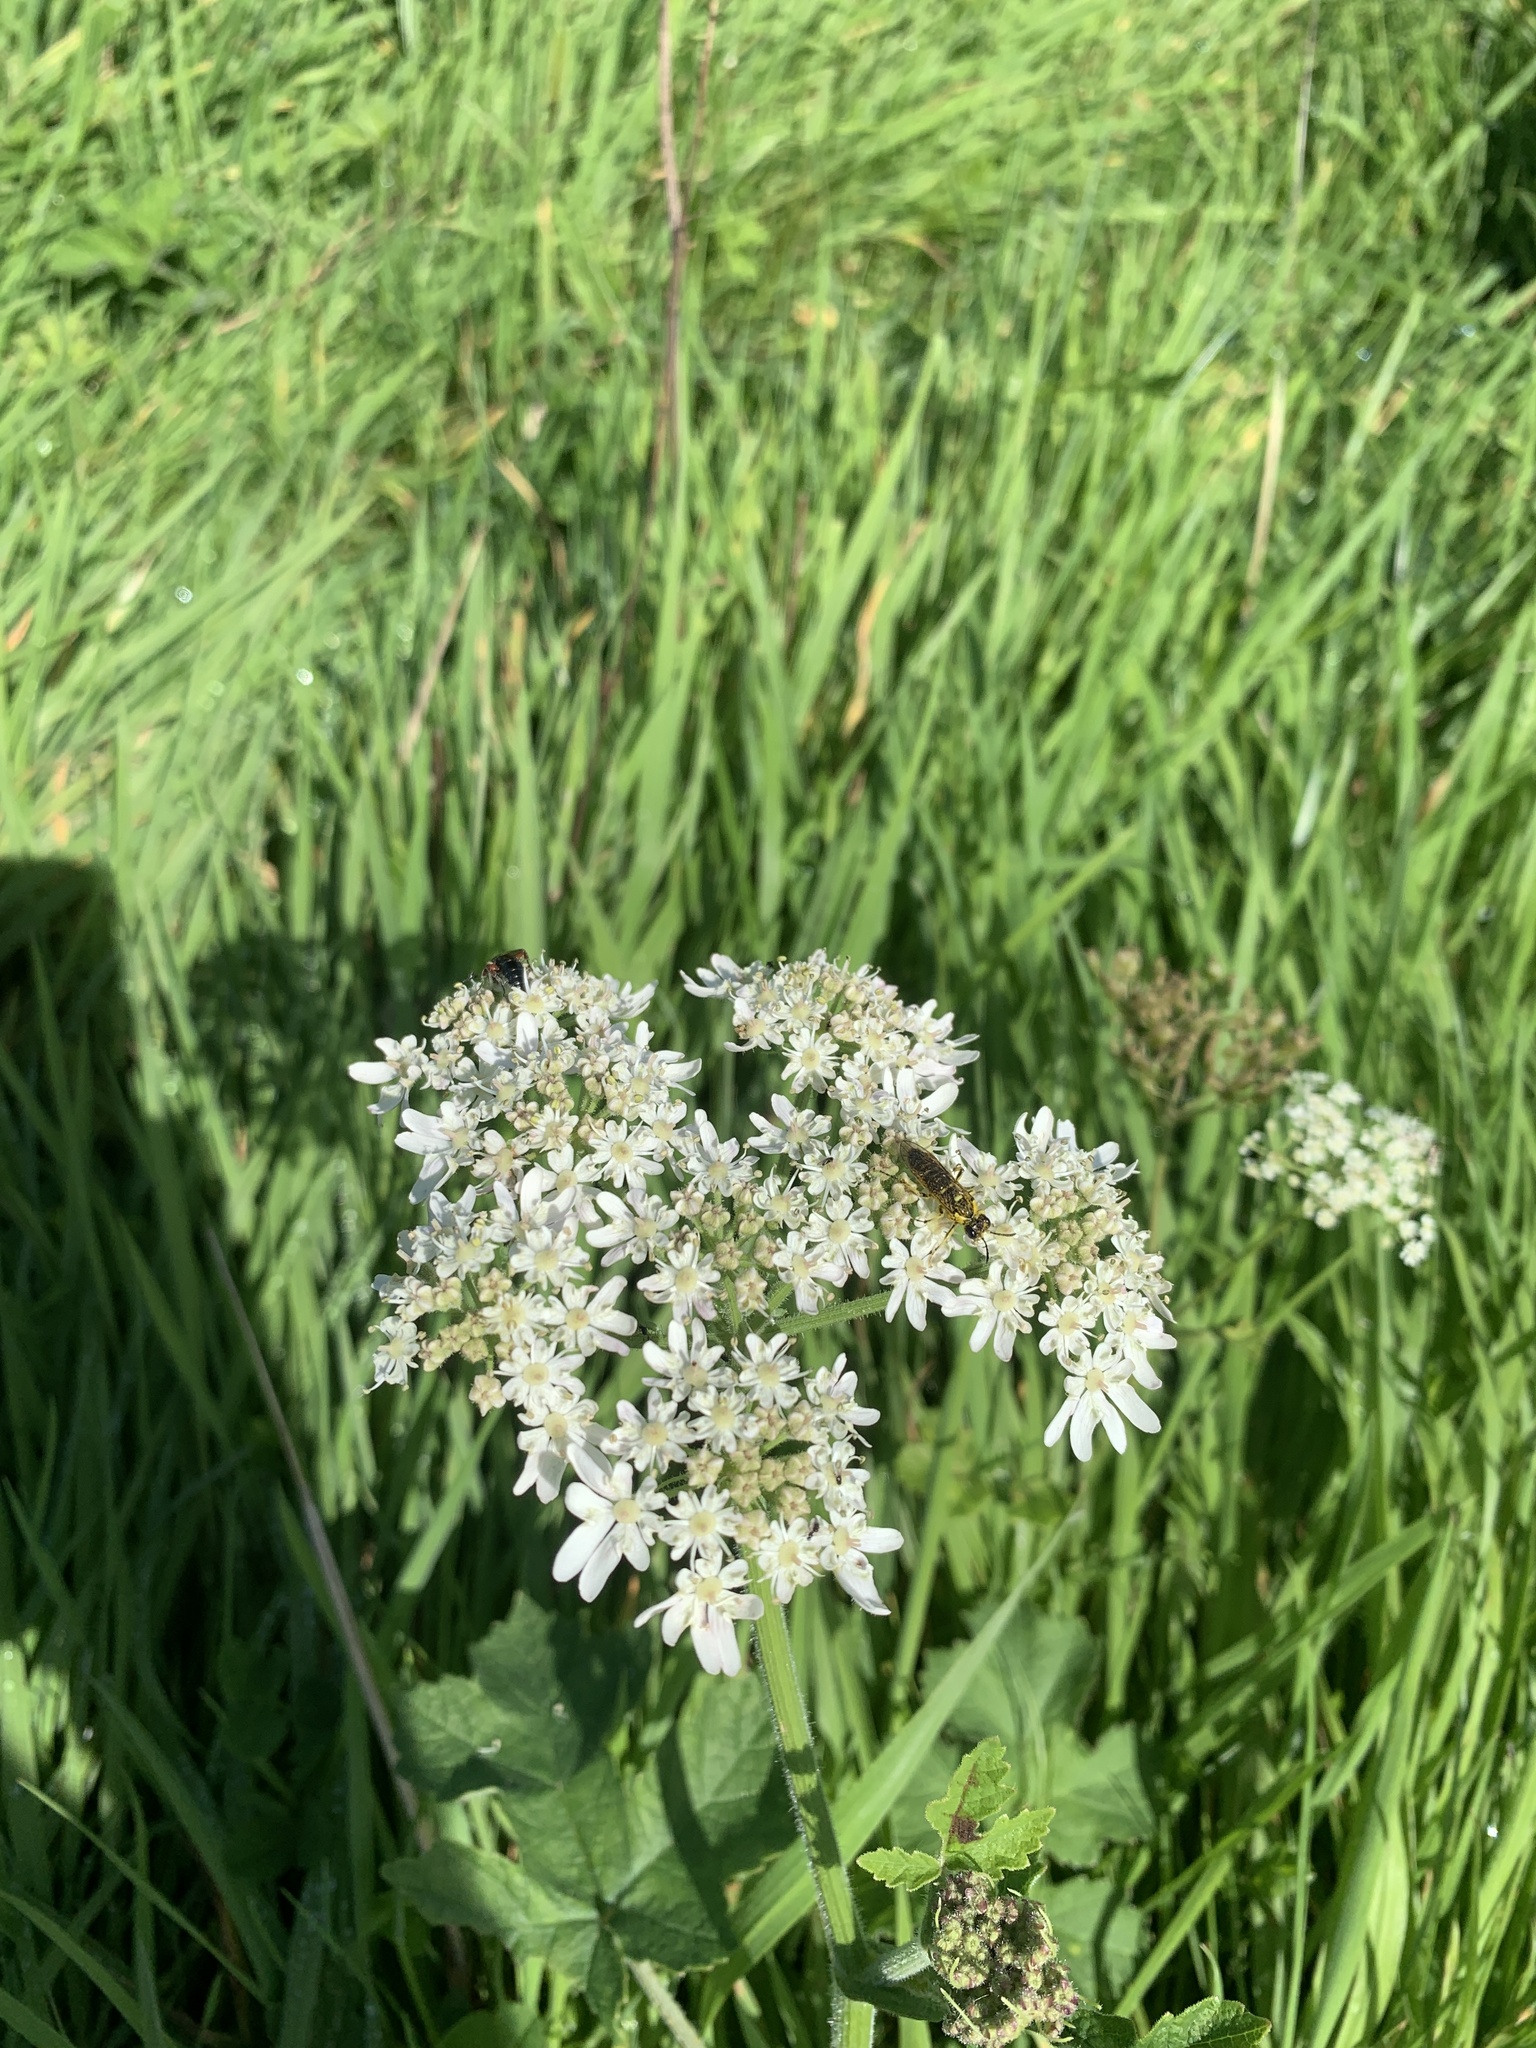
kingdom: Plantae
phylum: Tracheophyta
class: Magnoliopsida
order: Apiales
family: Apiaceae
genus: Heracleum
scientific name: Heracleum sphondylium
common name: Hogweed
